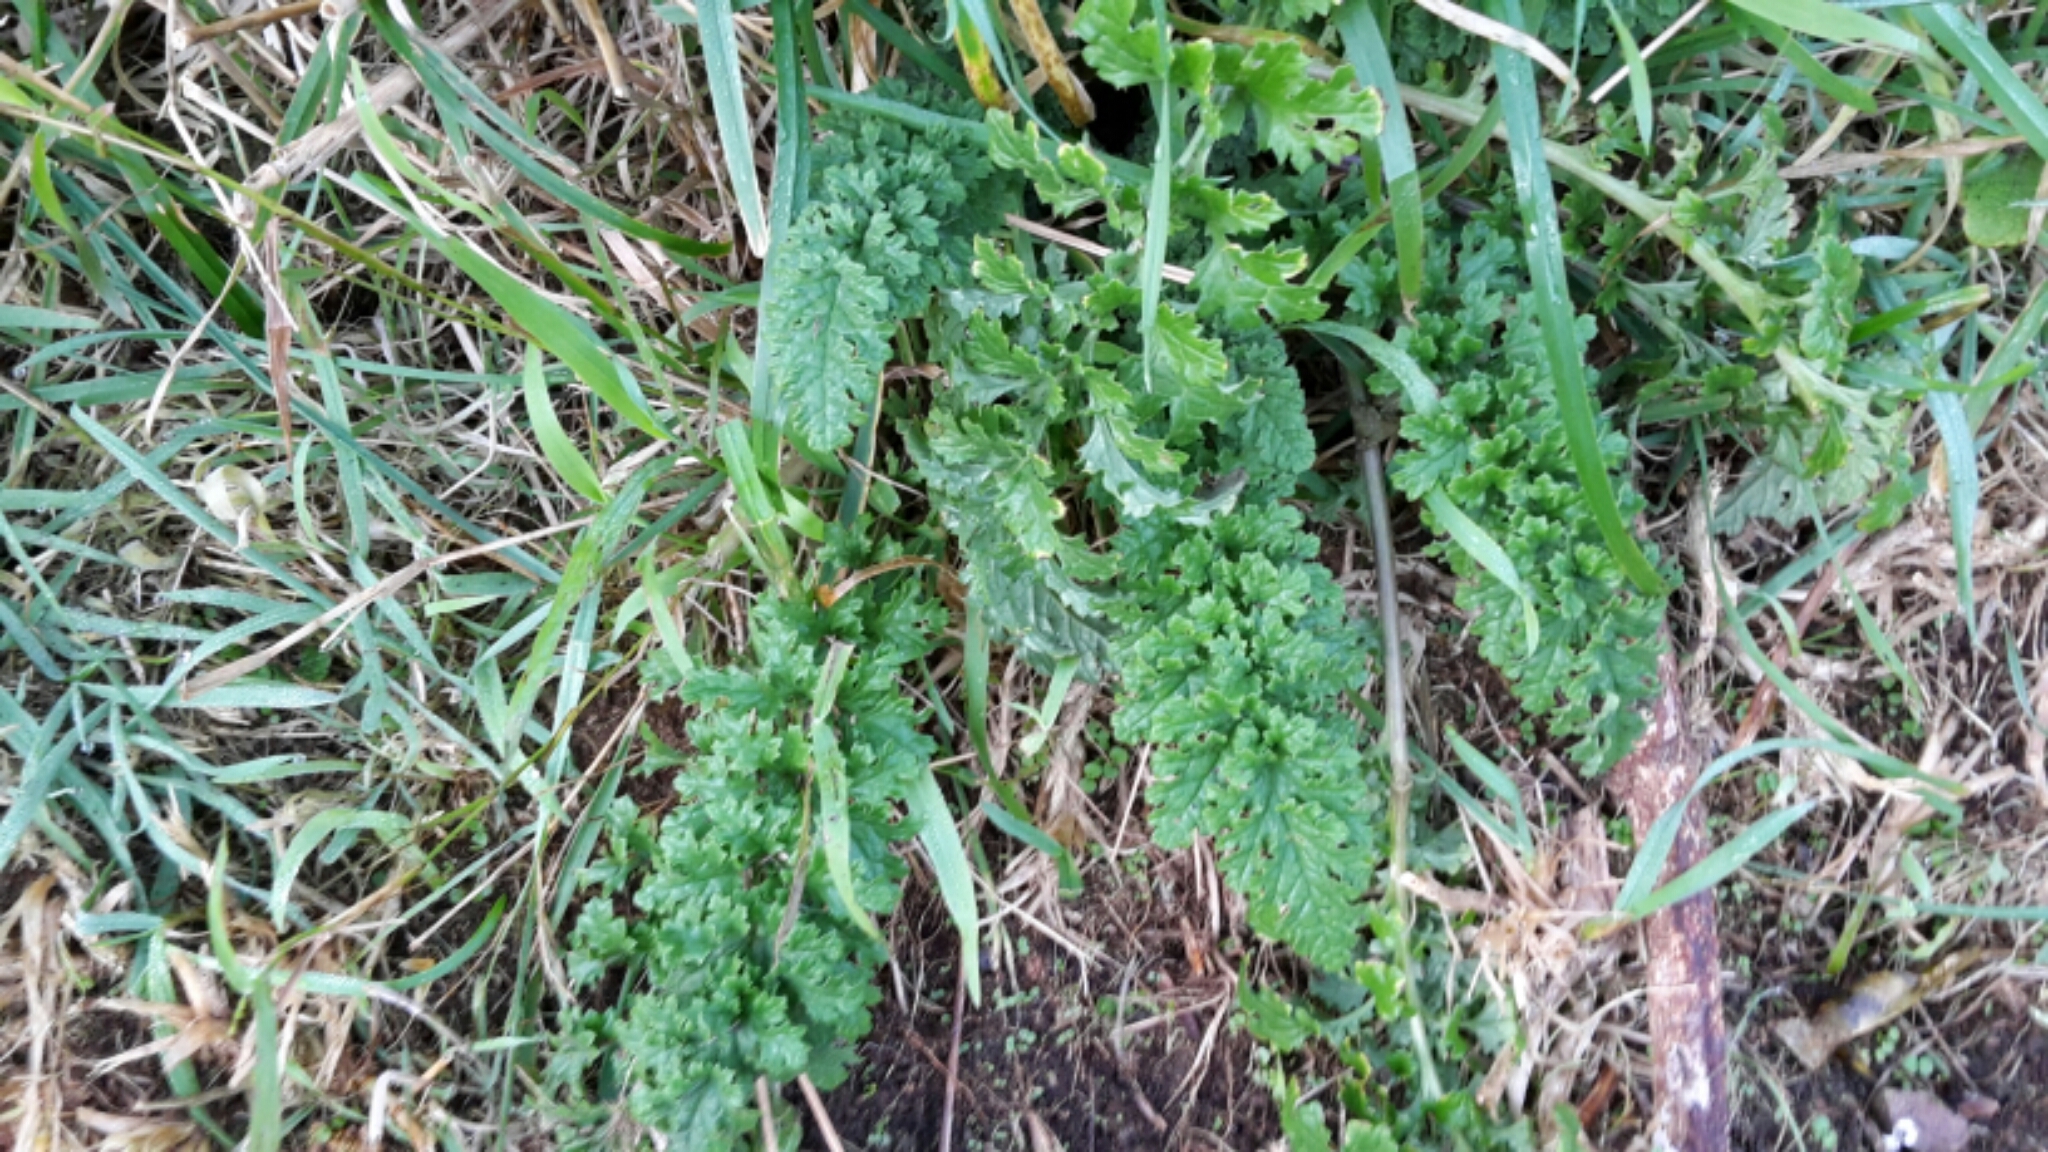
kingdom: Plantae
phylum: Tracheophyta
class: Magnoliopsida
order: Asterales
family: Asteraceae
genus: Jacobaea
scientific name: Jacobaea vulgaris
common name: Stinking willie
